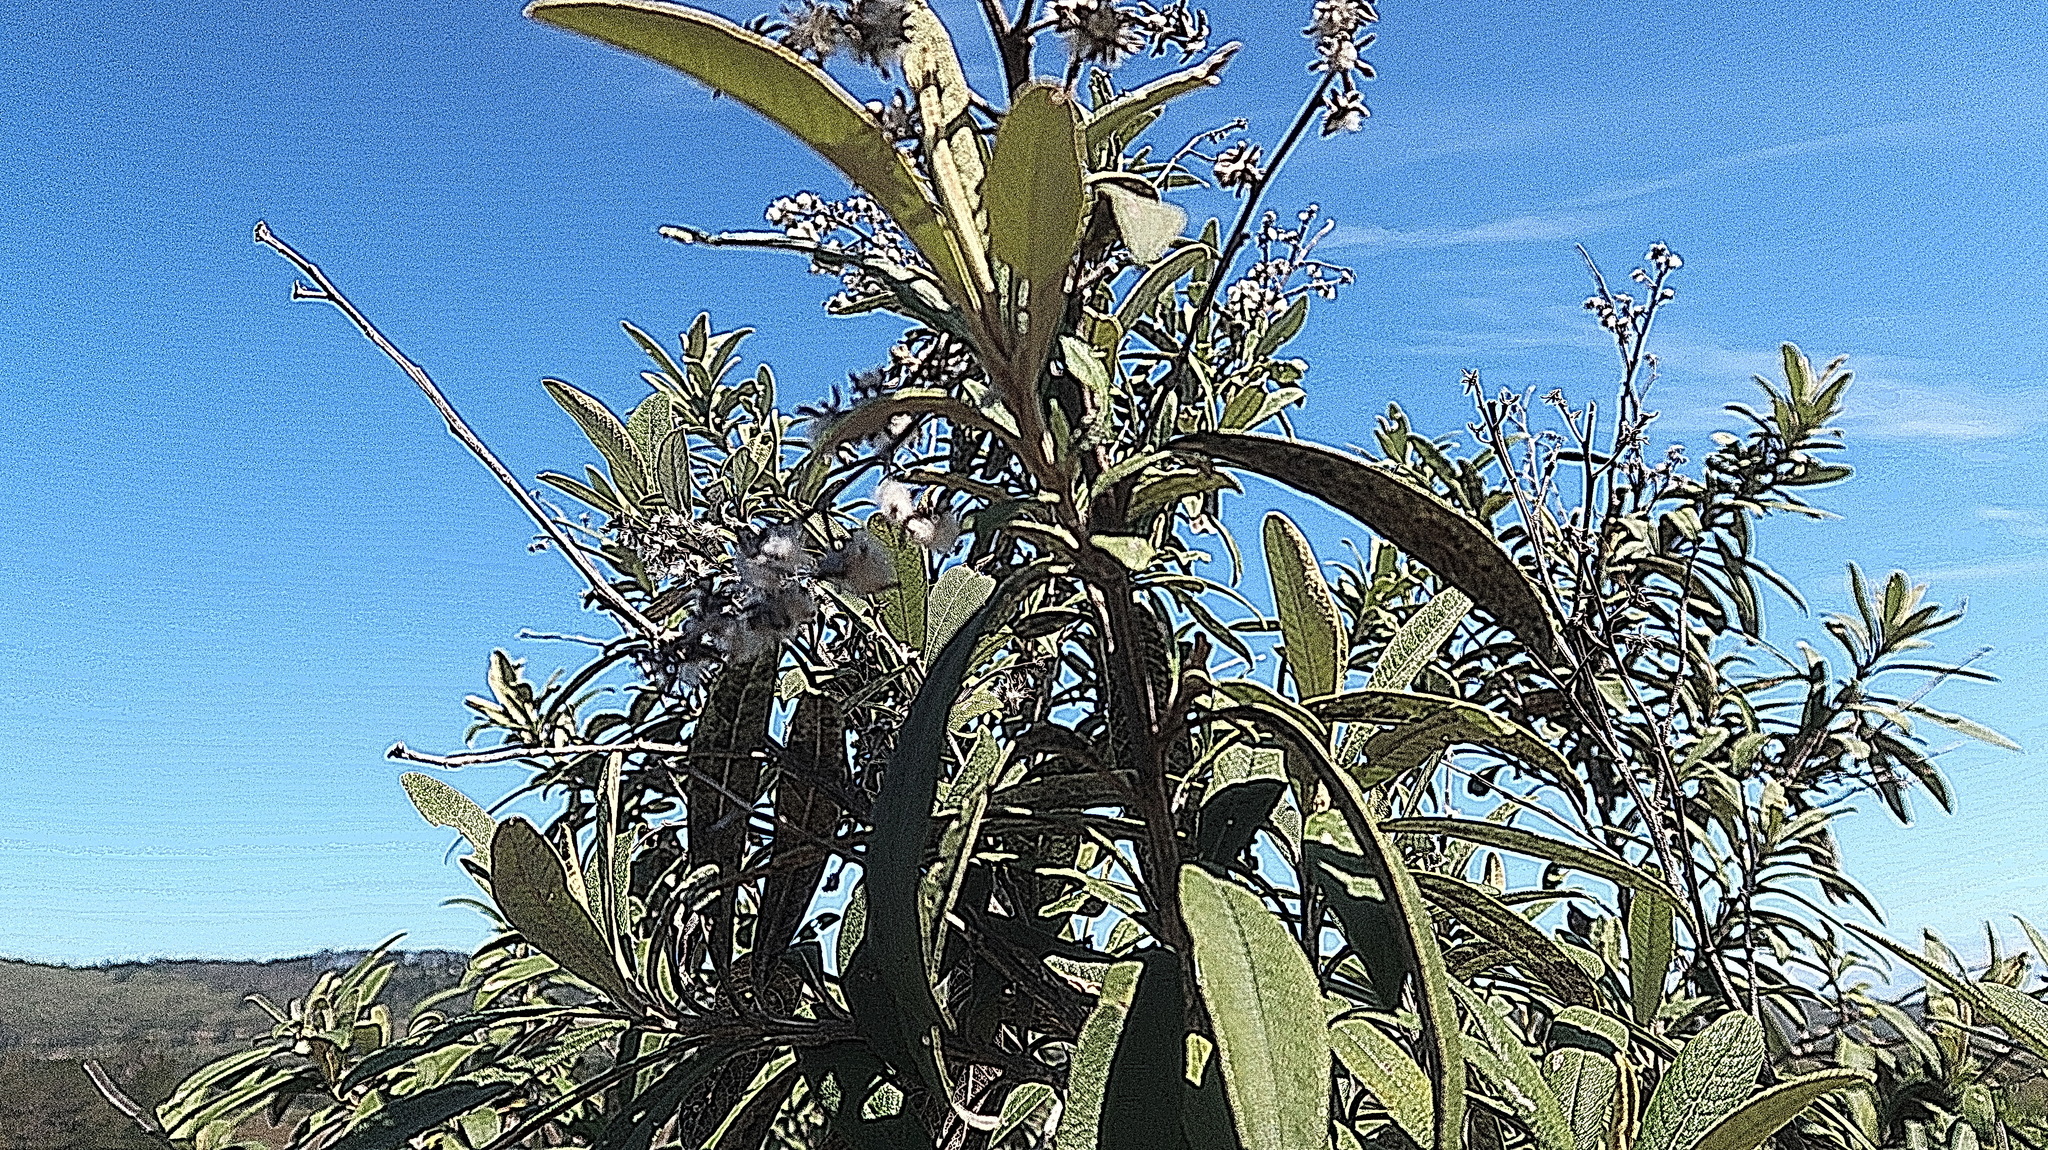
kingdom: Plantae
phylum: Tracheophyta
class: Magnoliopsida
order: Lamiales
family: Scrophulariaceae
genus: Buddleja
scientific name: Buddleja salviifolia
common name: Sagewood
